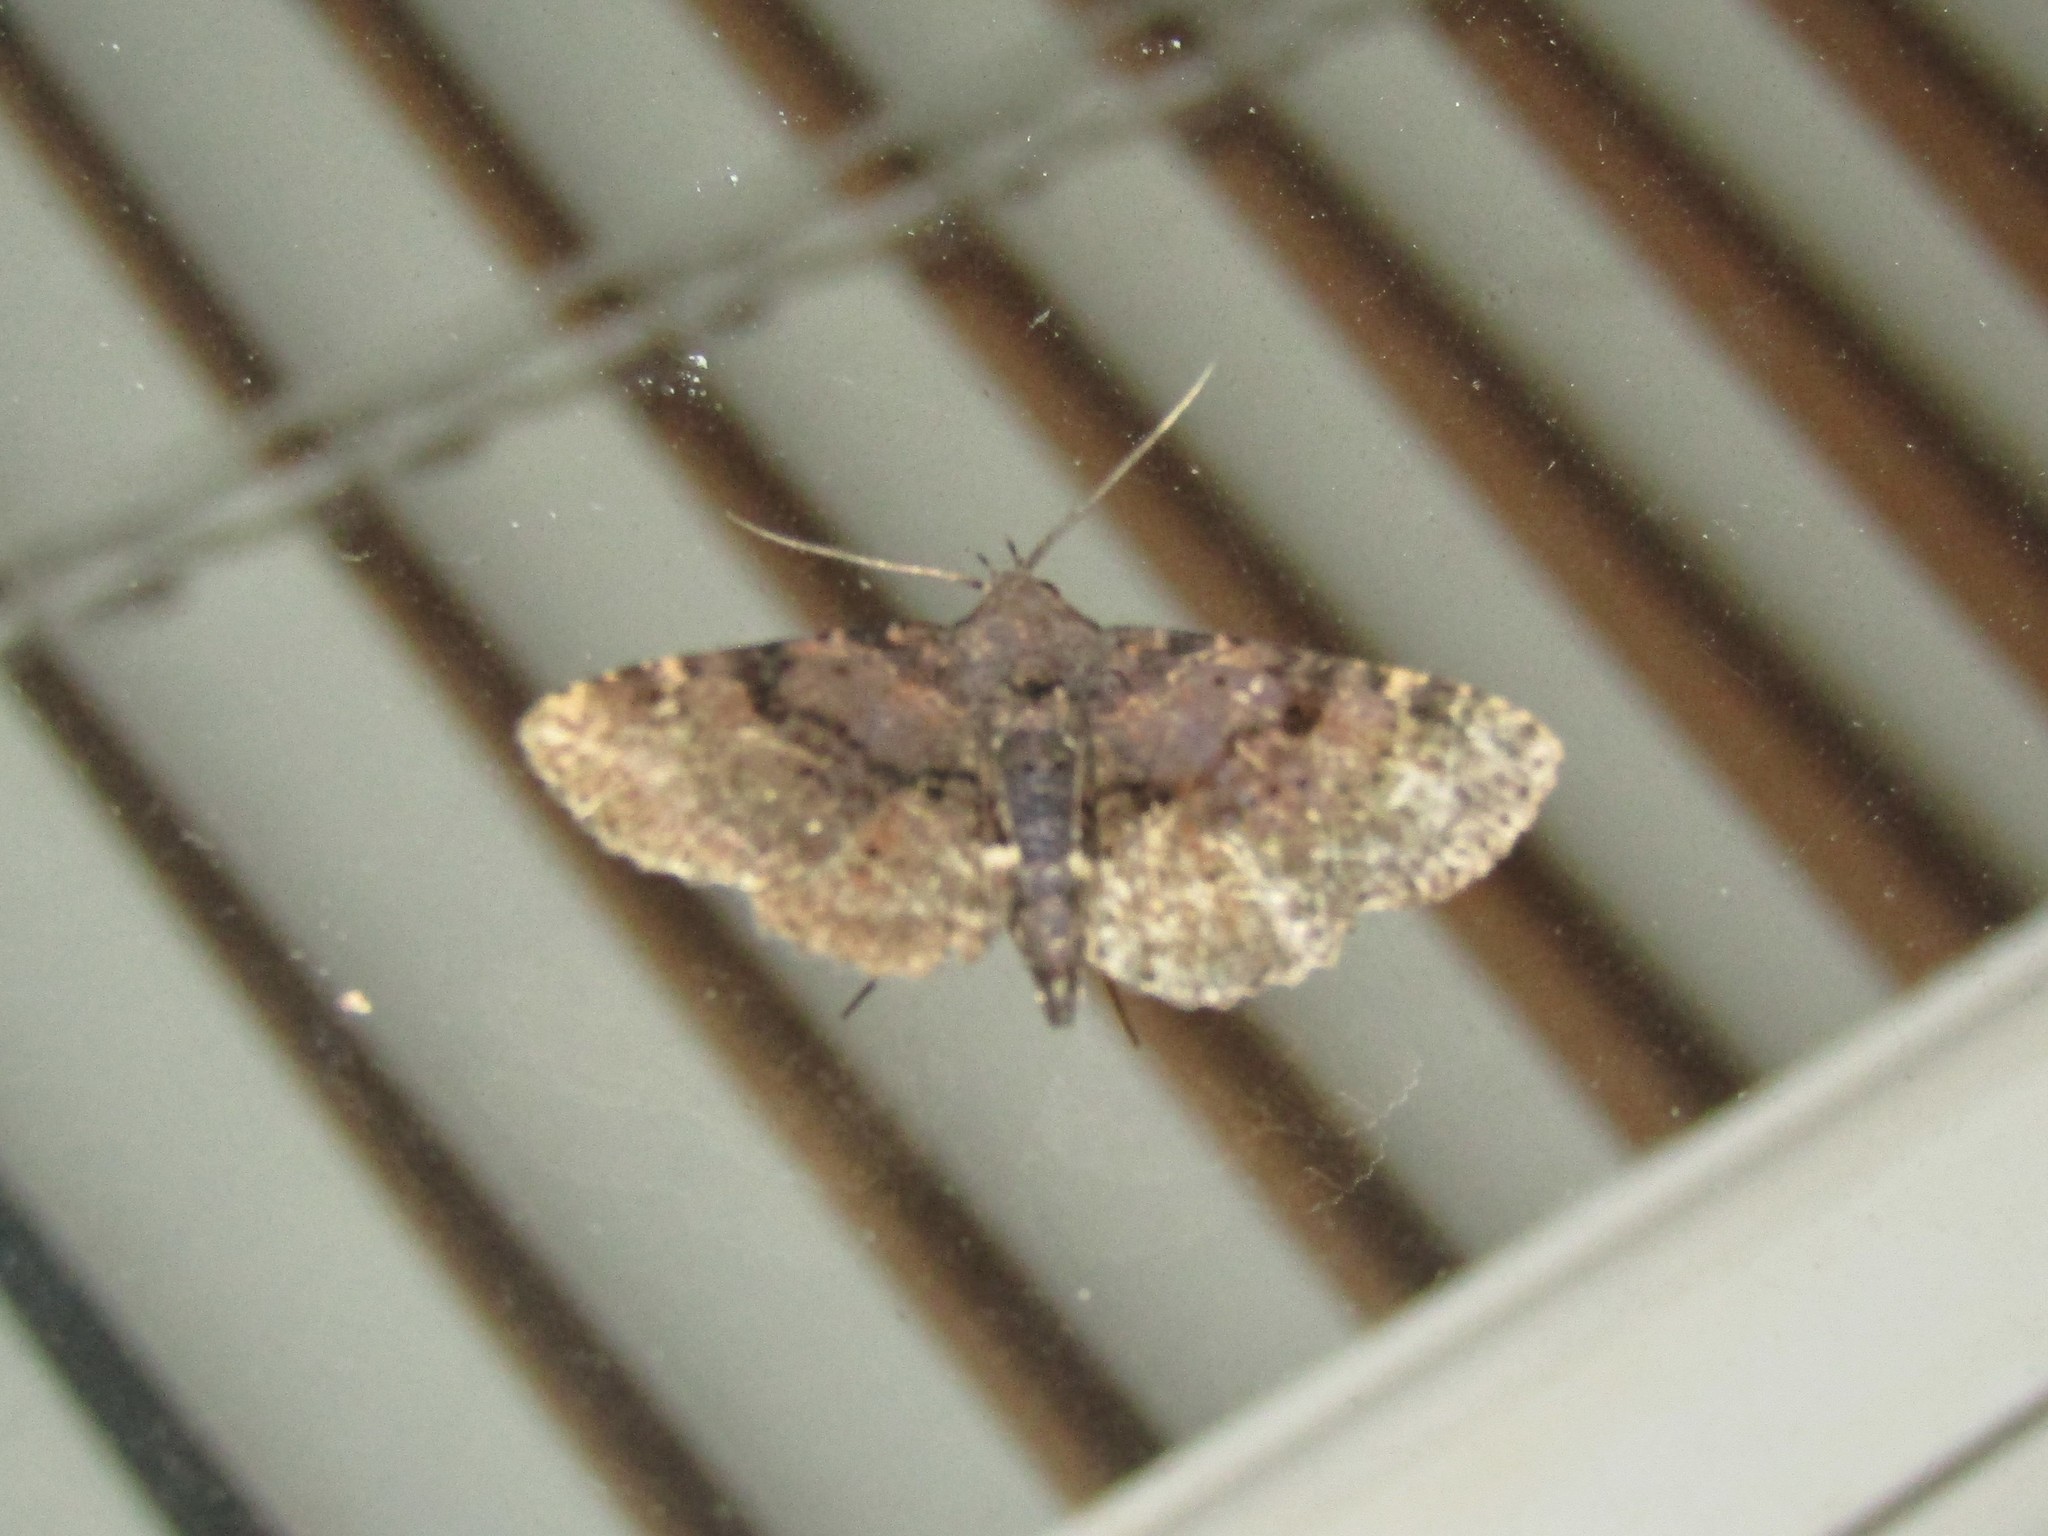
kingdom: Animalia
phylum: Arthropoda
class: Insecta
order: Lepidoptera
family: Erebidae
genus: Metalectra
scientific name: Metalectra quadrisignata
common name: Four-spotted fungus moth
